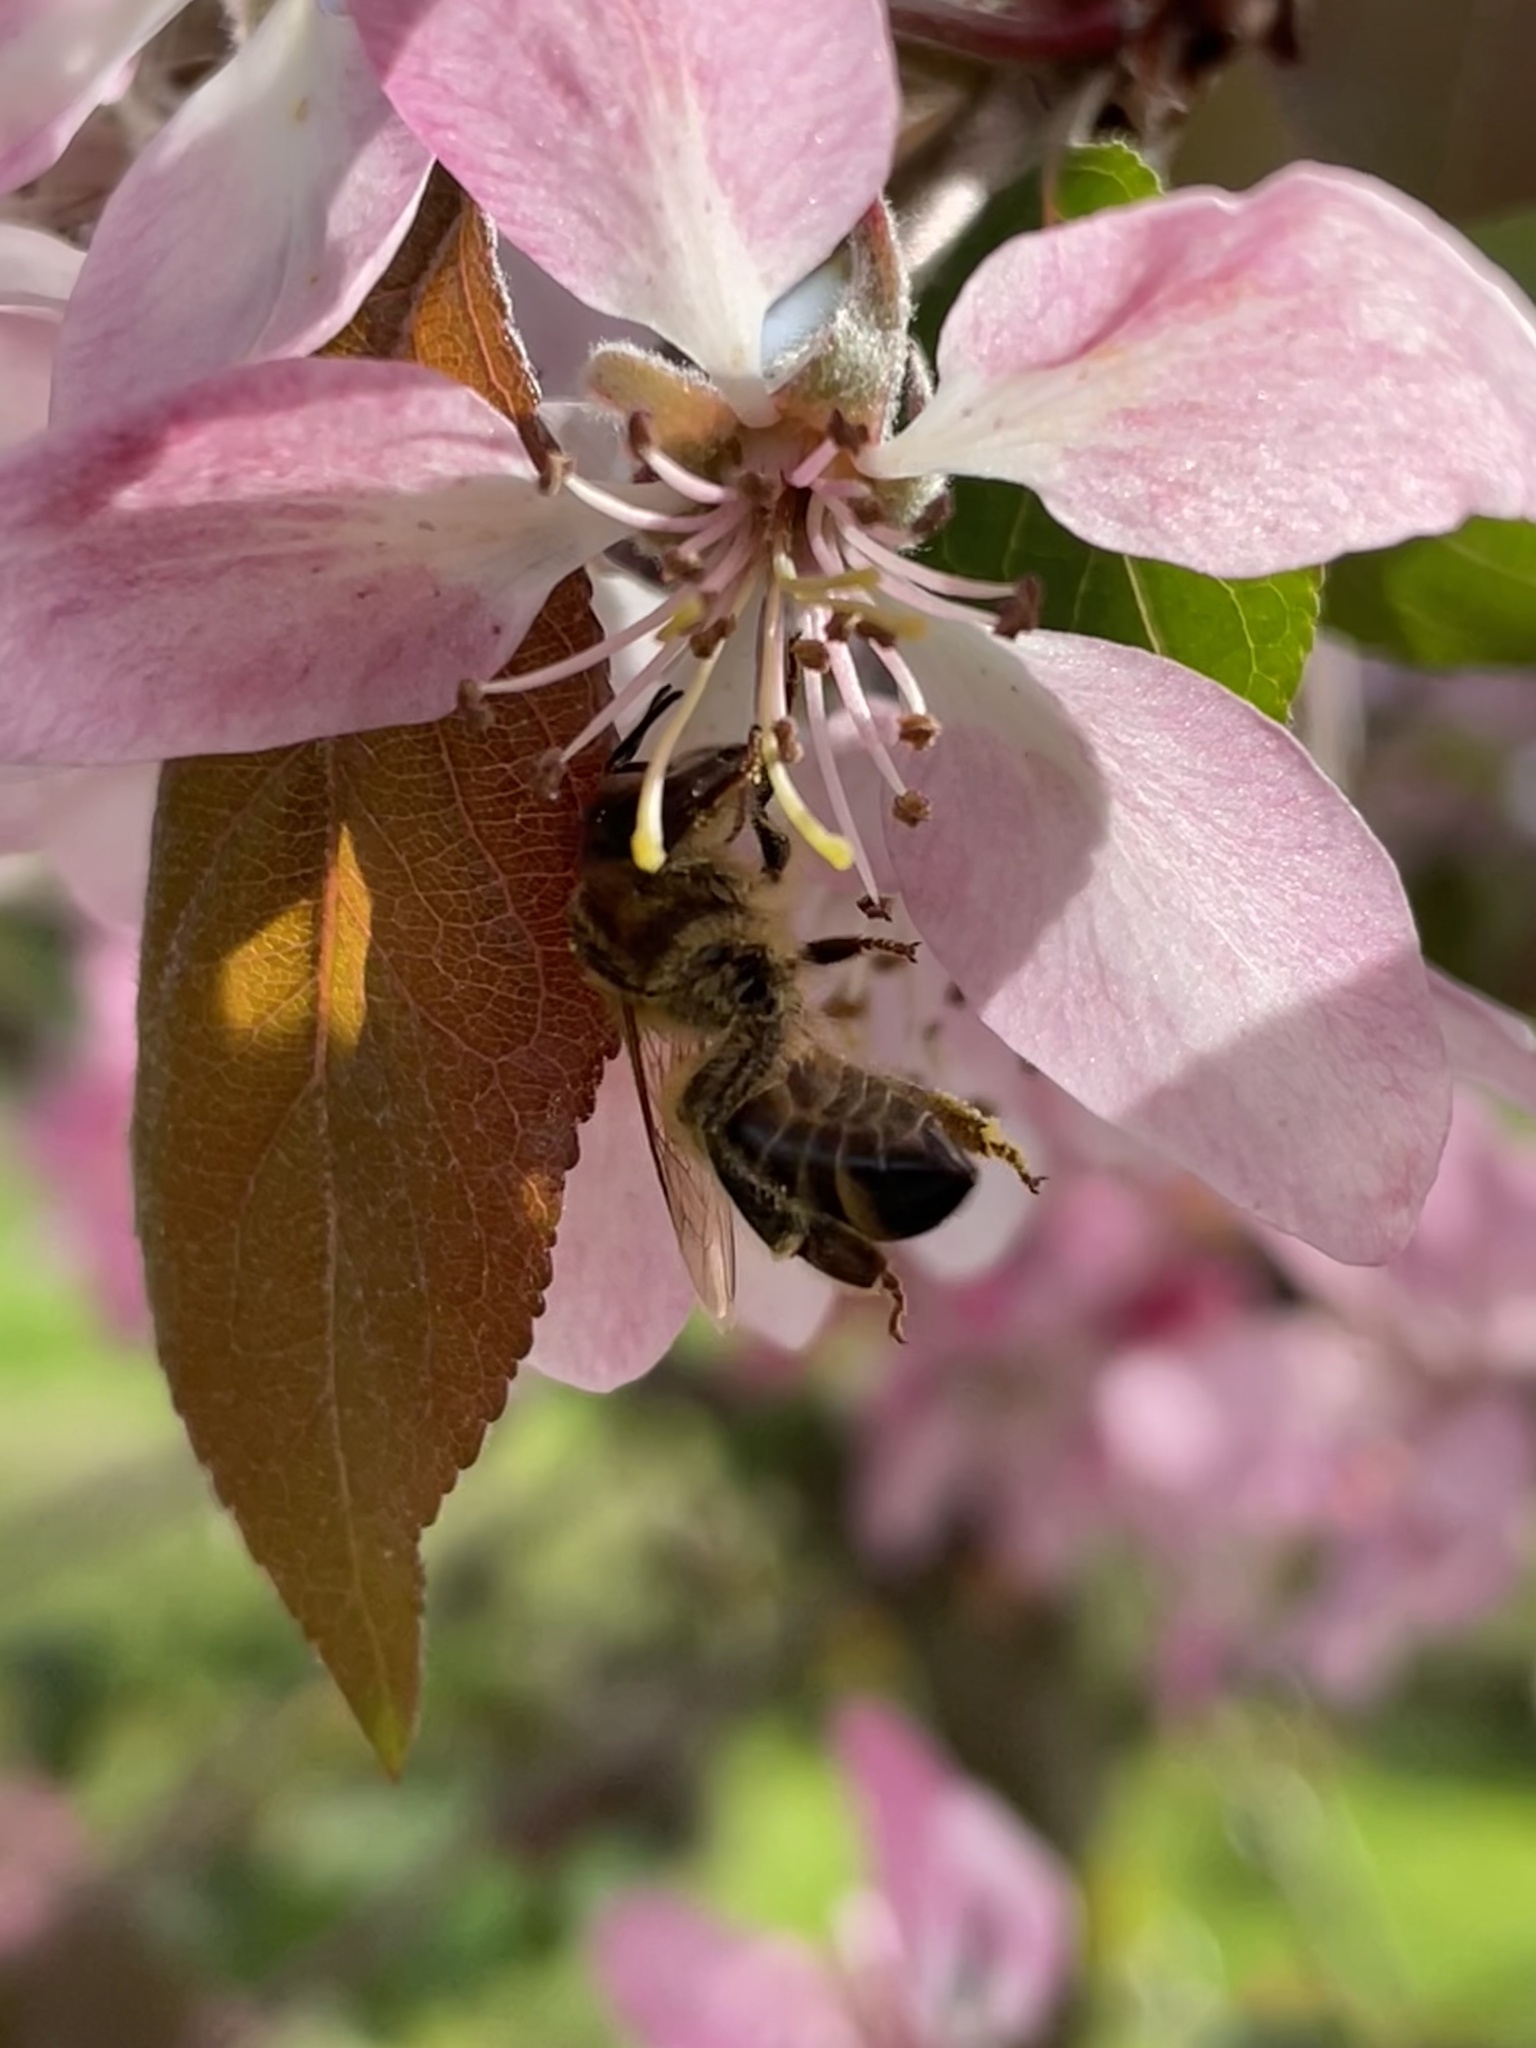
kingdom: Animalia
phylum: Arthropoda
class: Insecta
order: Hymenoptera
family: Apidae
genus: Apis
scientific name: Apis mellifera
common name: Honey bee
